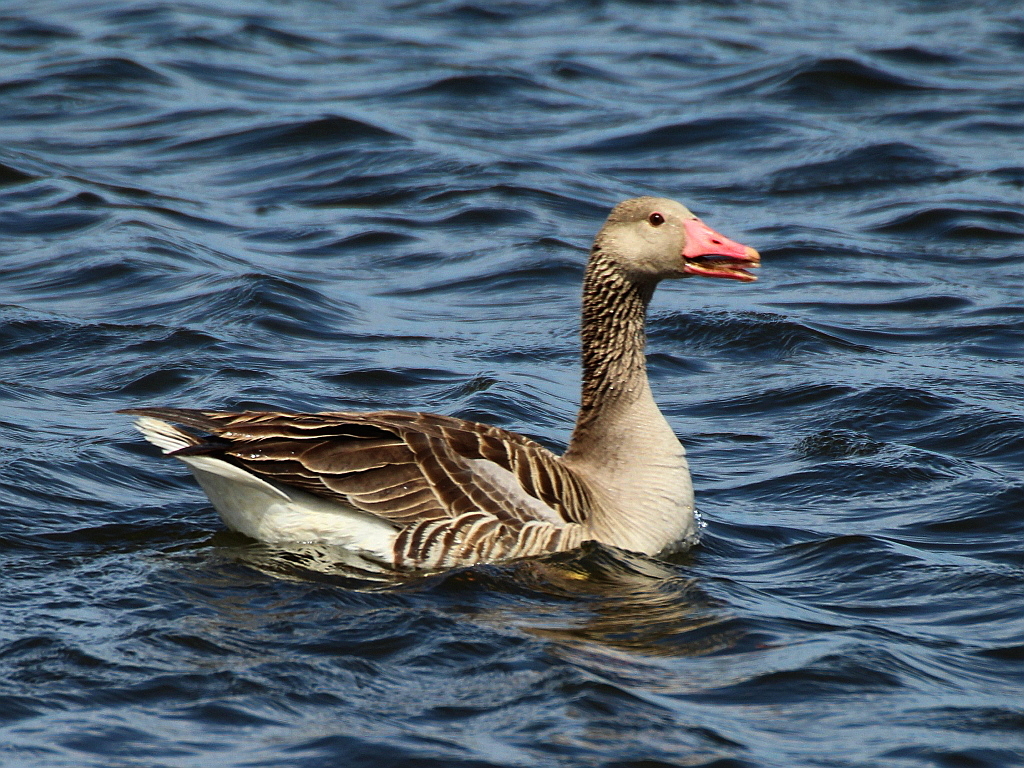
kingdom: Animalia
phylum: Chordata
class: Aves
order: Anseriformes
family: Anatidae
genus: Anser
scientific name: Anser anser
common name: Greylag goose
